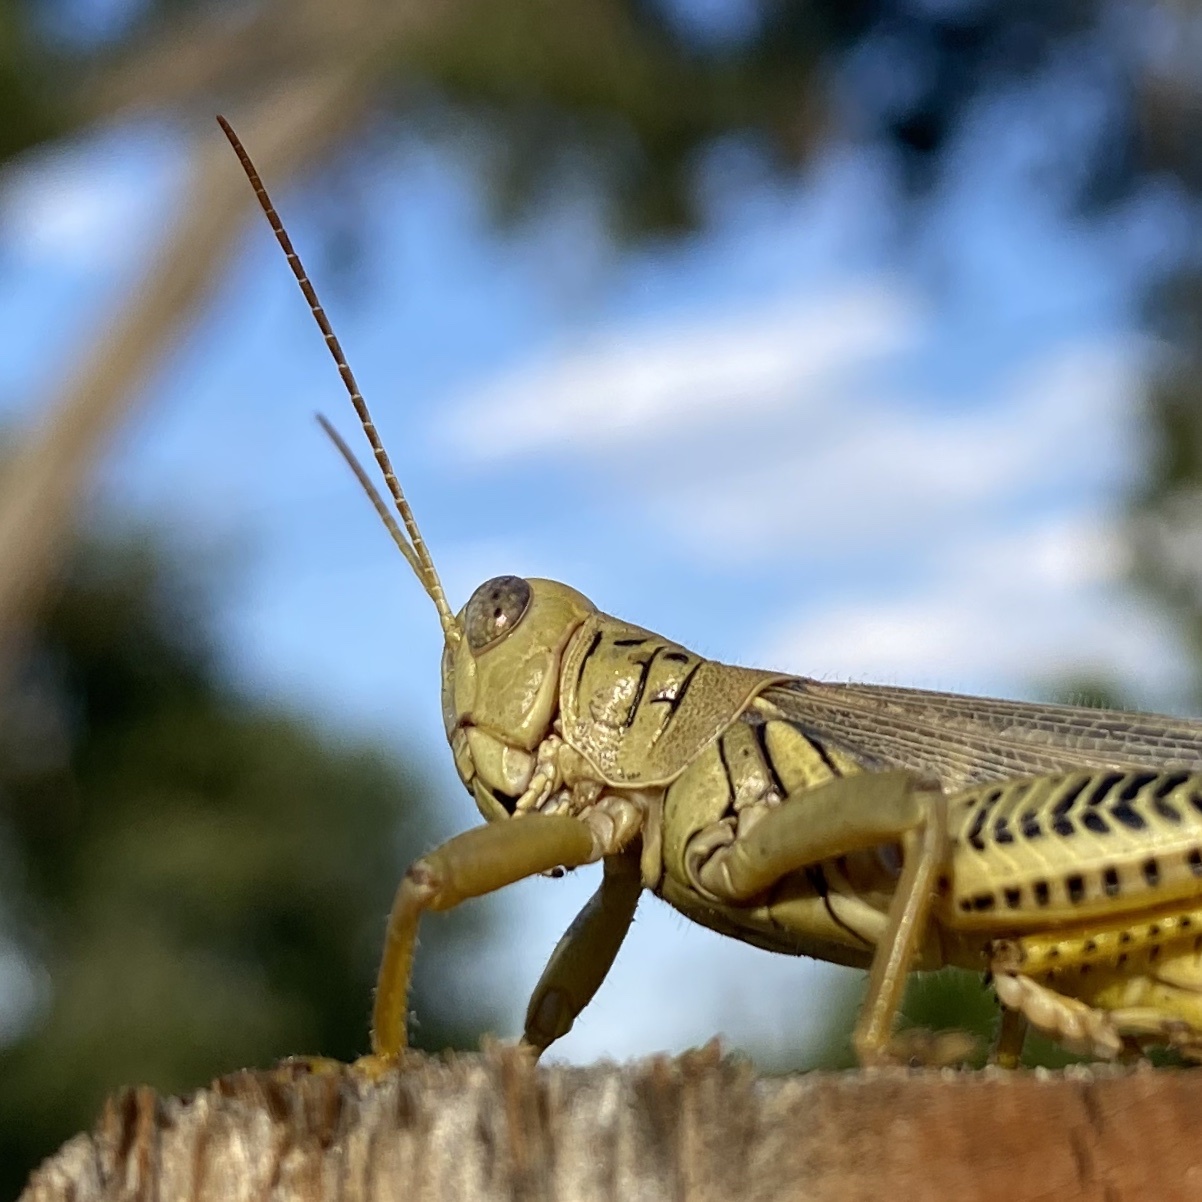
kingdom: Animalia
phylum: Arthropoda
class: Insecta
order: Orthoptera
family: Acrididae
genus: Melanoplus
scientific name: Melanoplus differentialis
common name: Differential grasshopper
